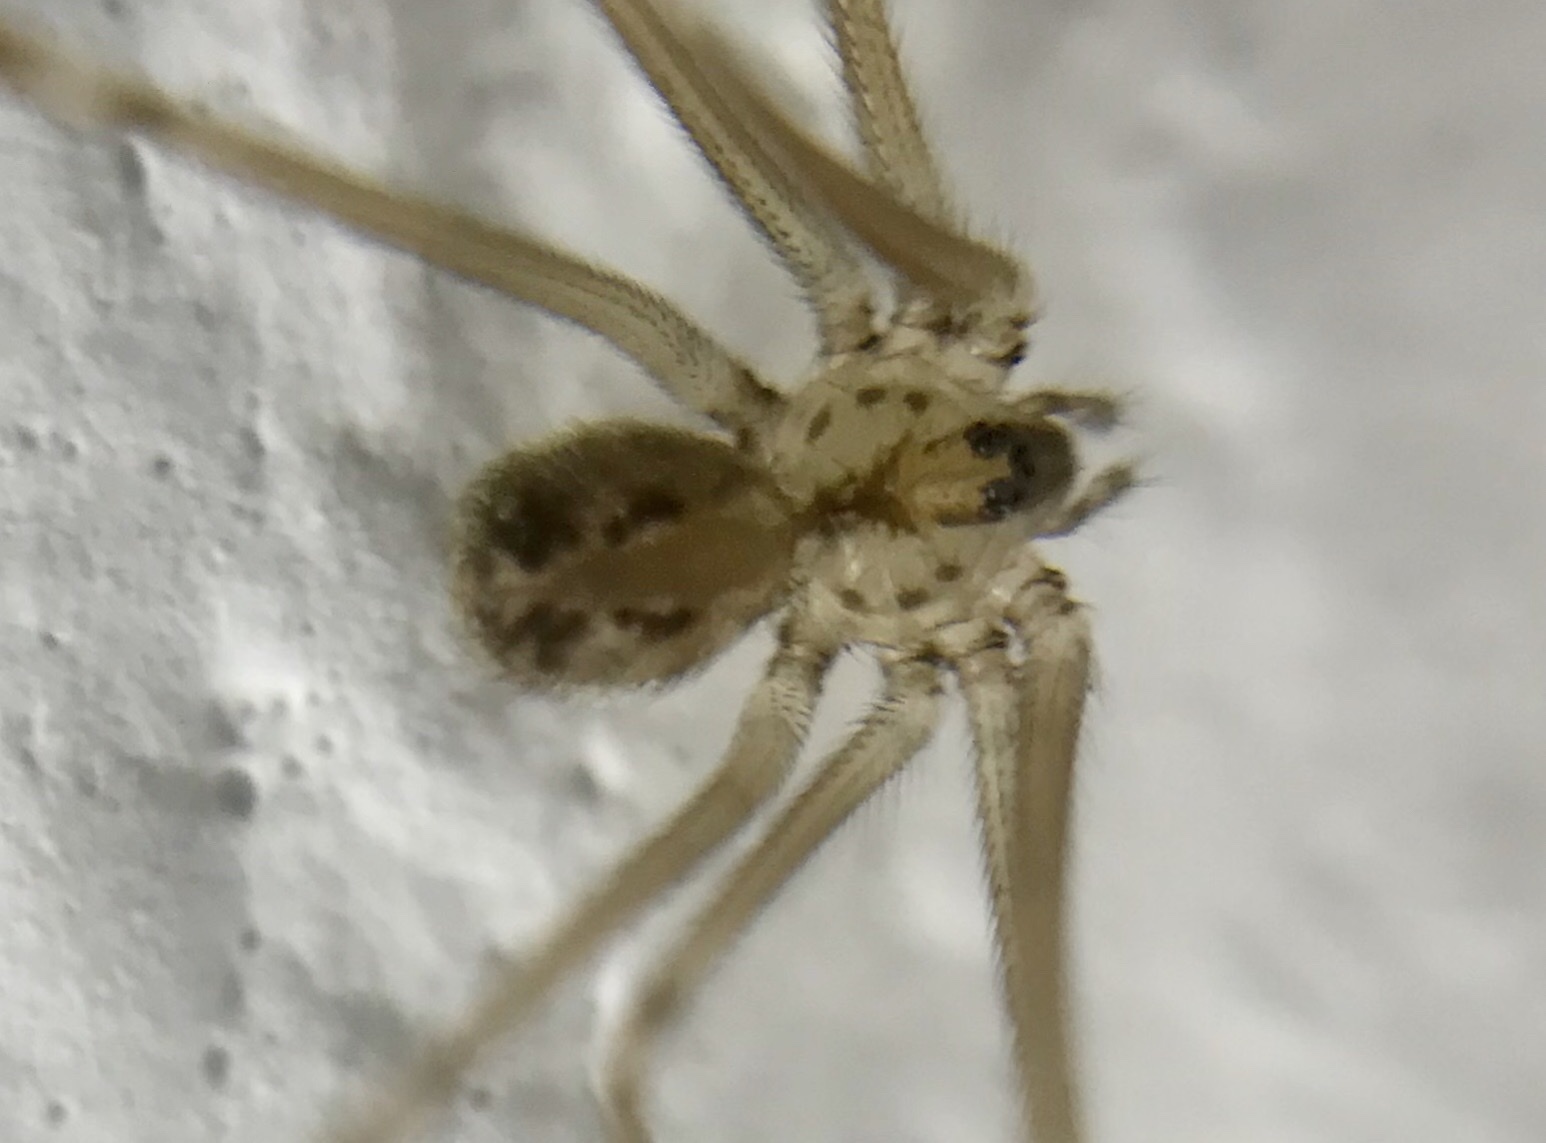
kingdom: Animalia
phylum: Arthropoda
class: Arachnida
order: Araneae
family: Pholcidae
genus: Physocyclus
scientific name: Physocyclus viridis
